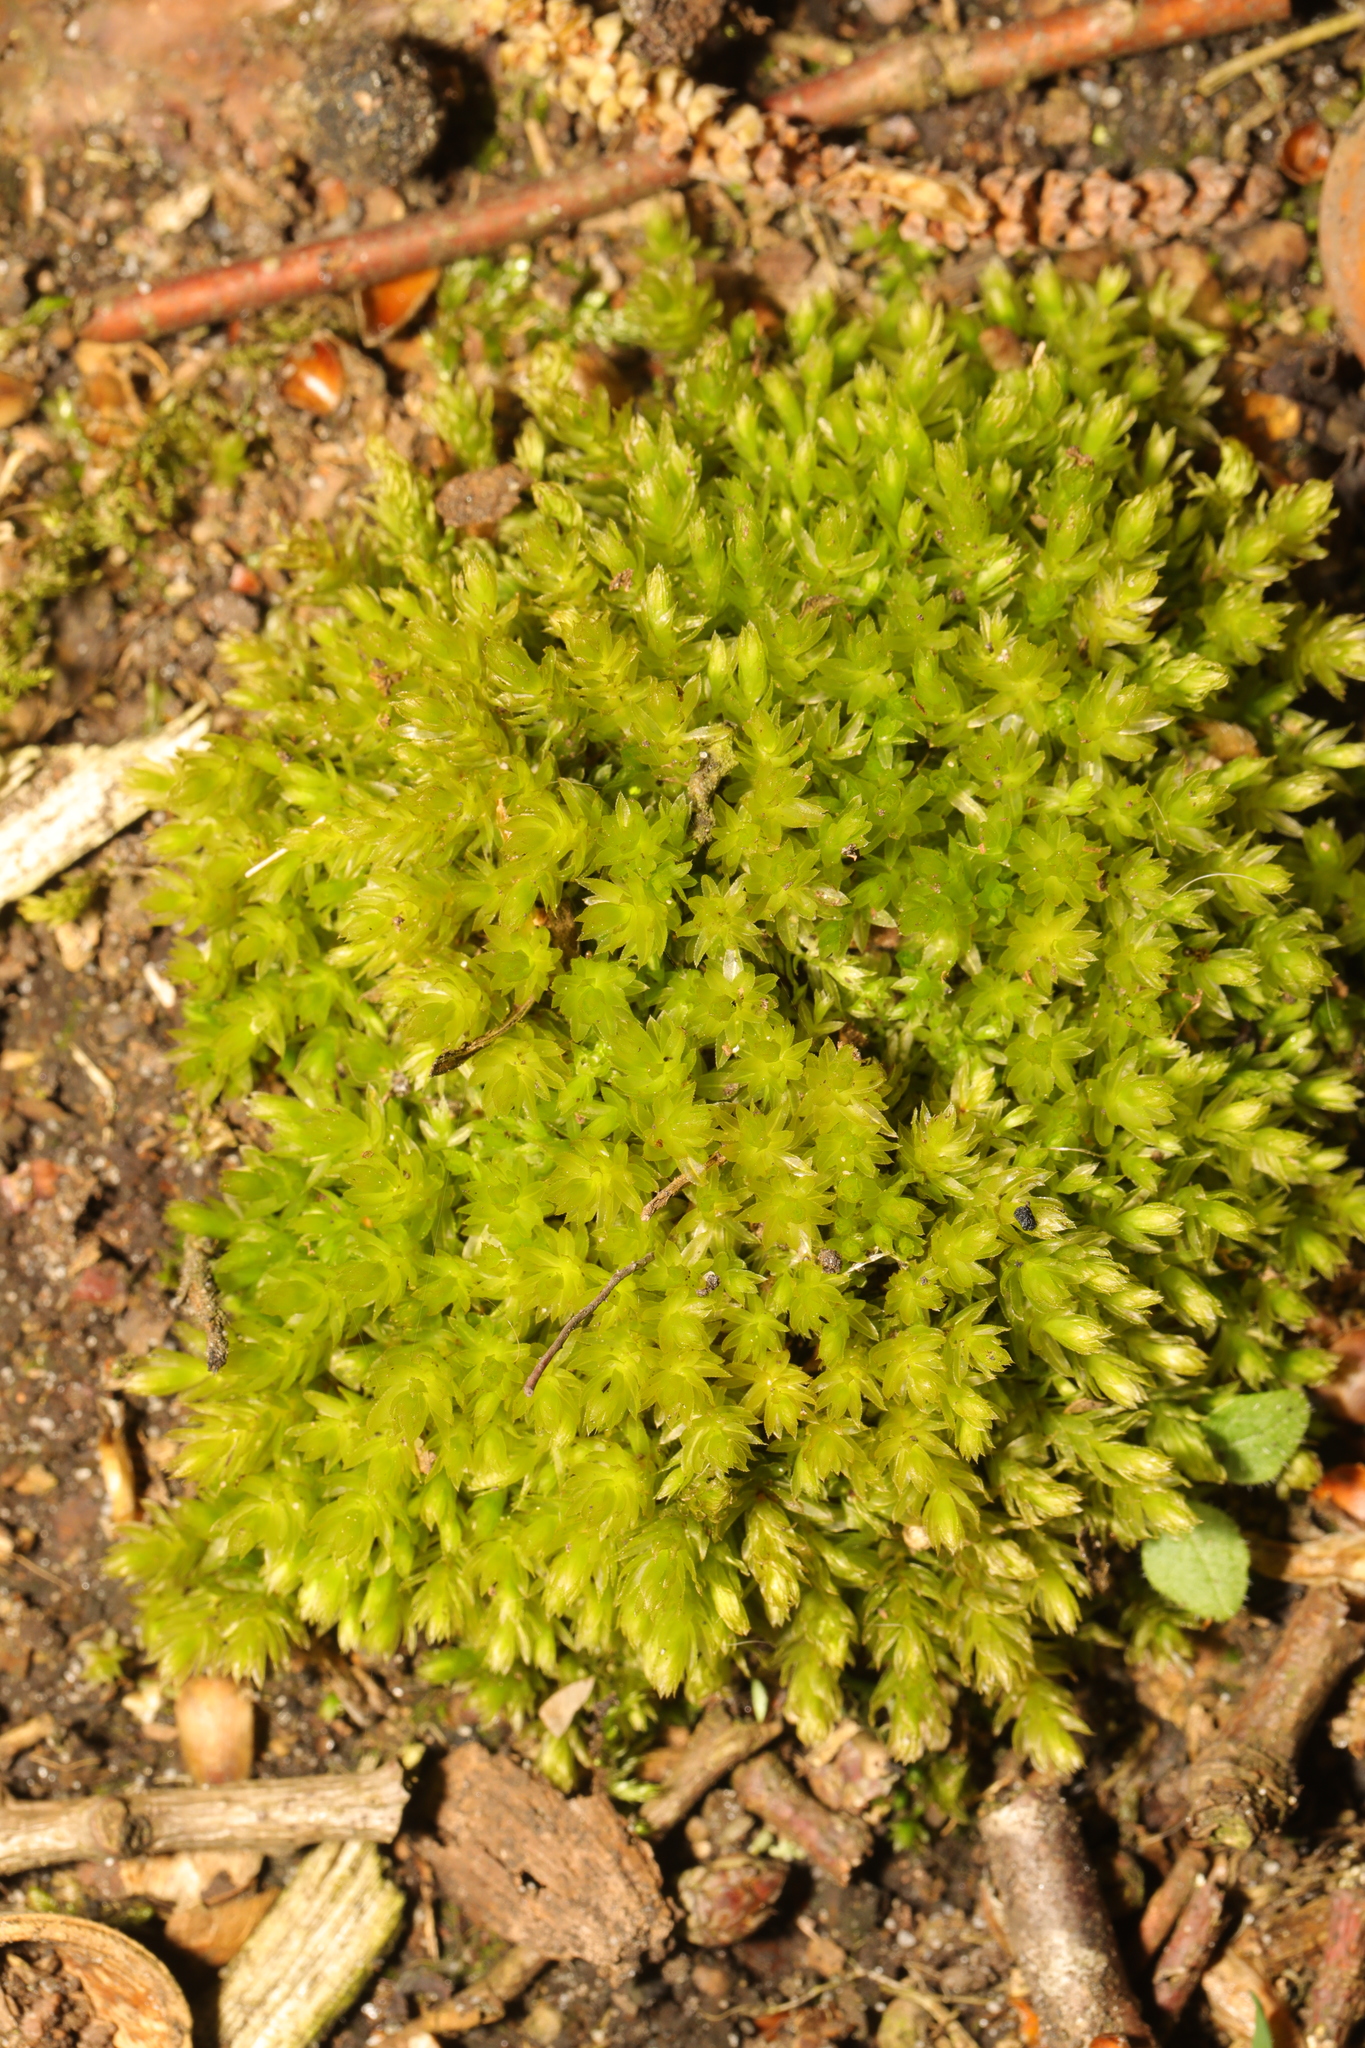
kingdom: Plantae
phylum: Bryophyta
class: Bryopsida
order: Bryales
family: Mniaceae
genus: Mnium
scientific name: Mnium hornum
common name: Swan's-neck leafy moss
